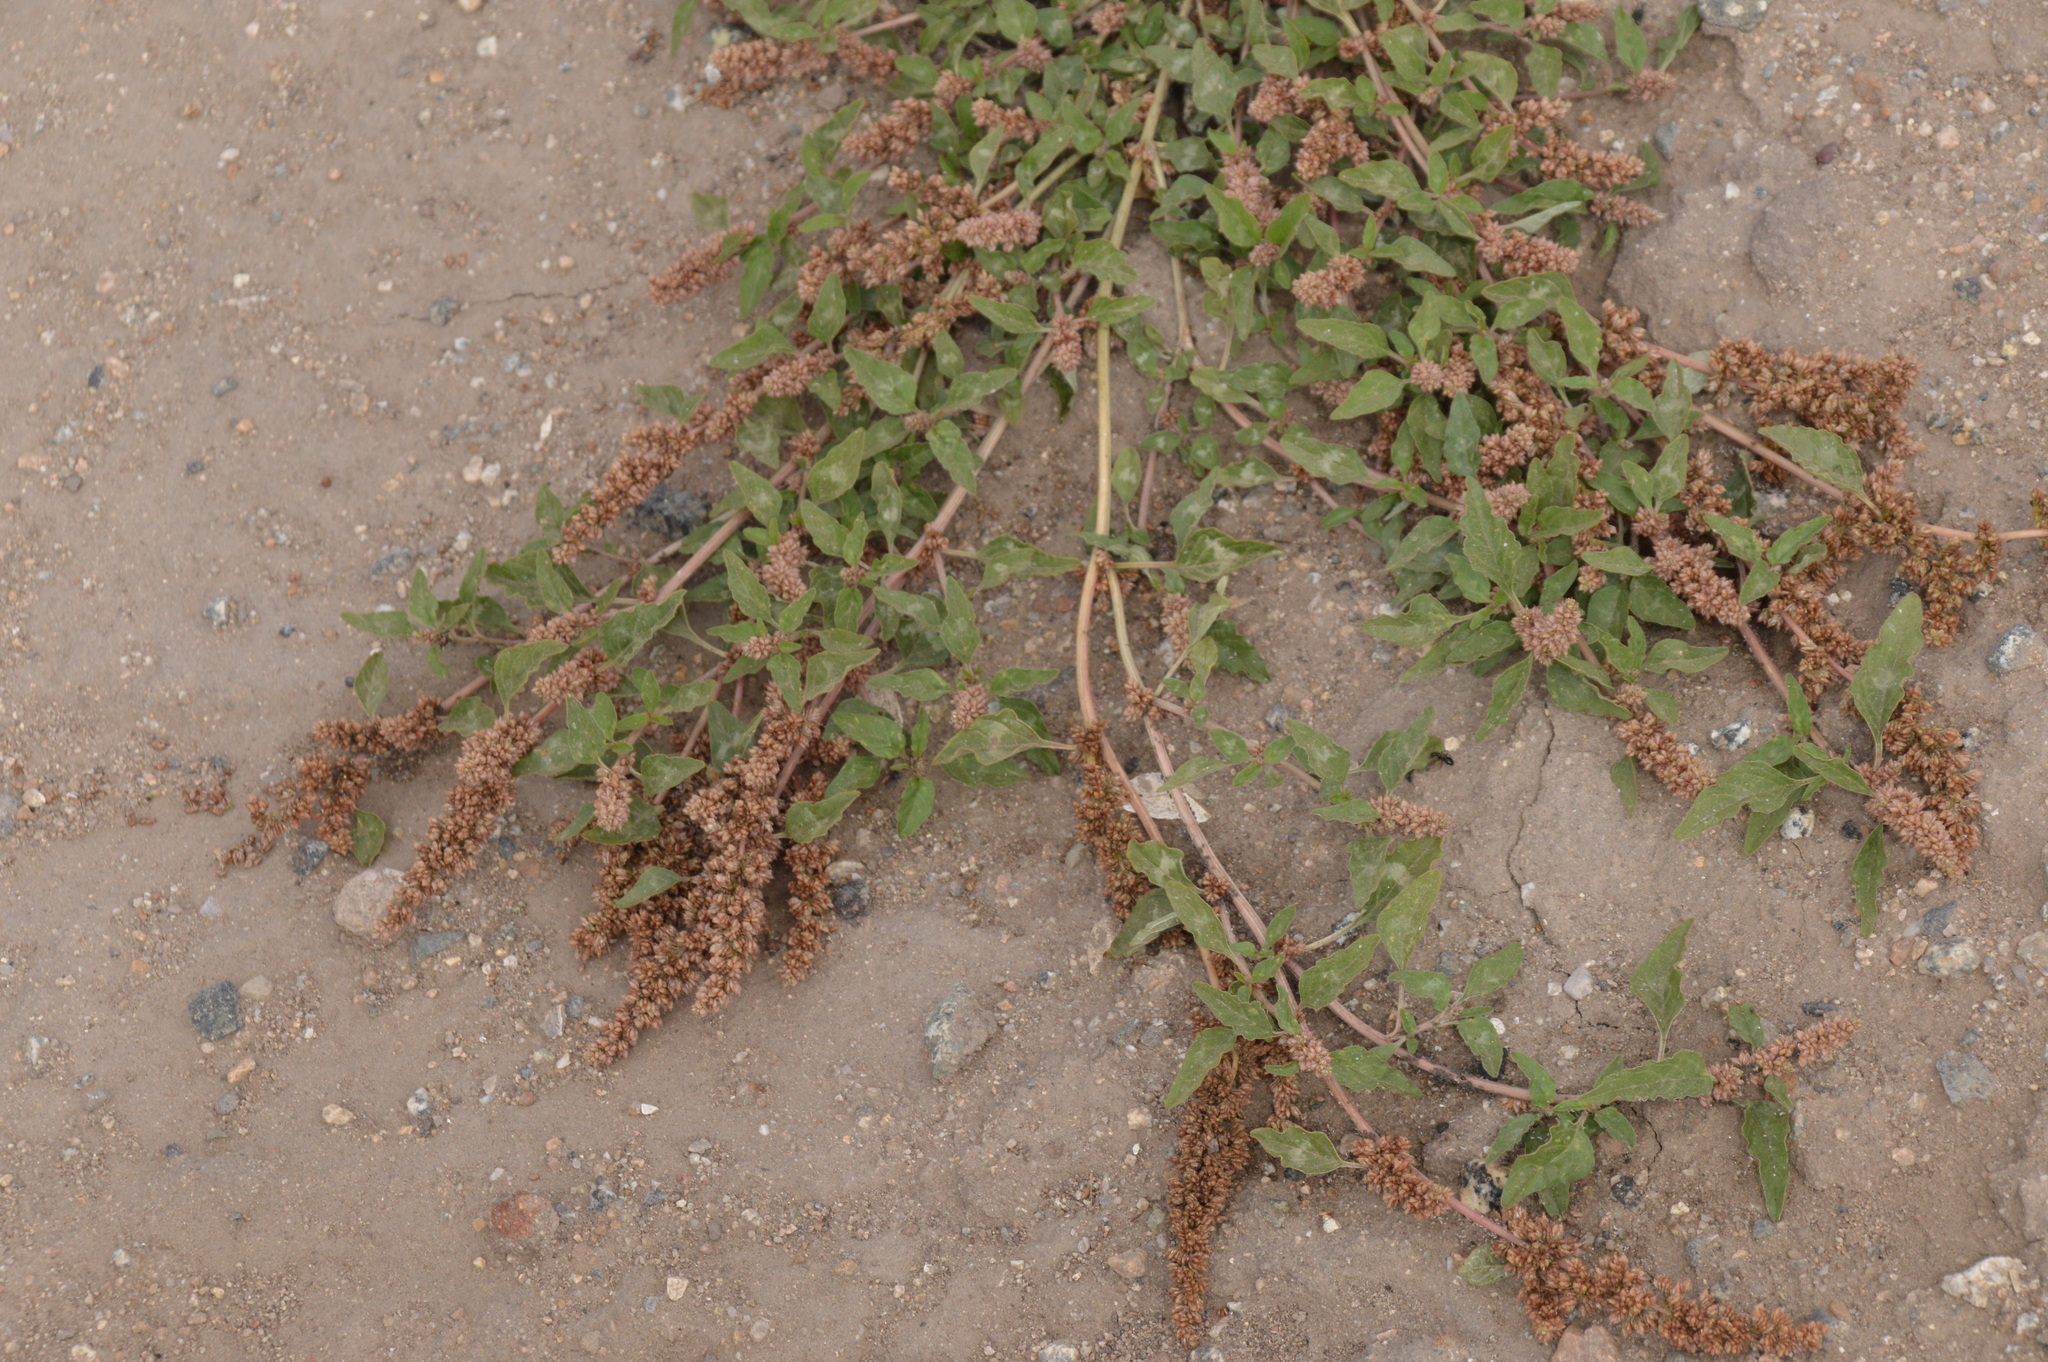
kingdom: Plantae
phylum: Tracheophyta
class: Magnoliopsida
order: Caryophyllales
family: Amaranthaceae
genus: Amaranthus
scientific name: Amaranthus deflexus
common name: Perennial pigweed
